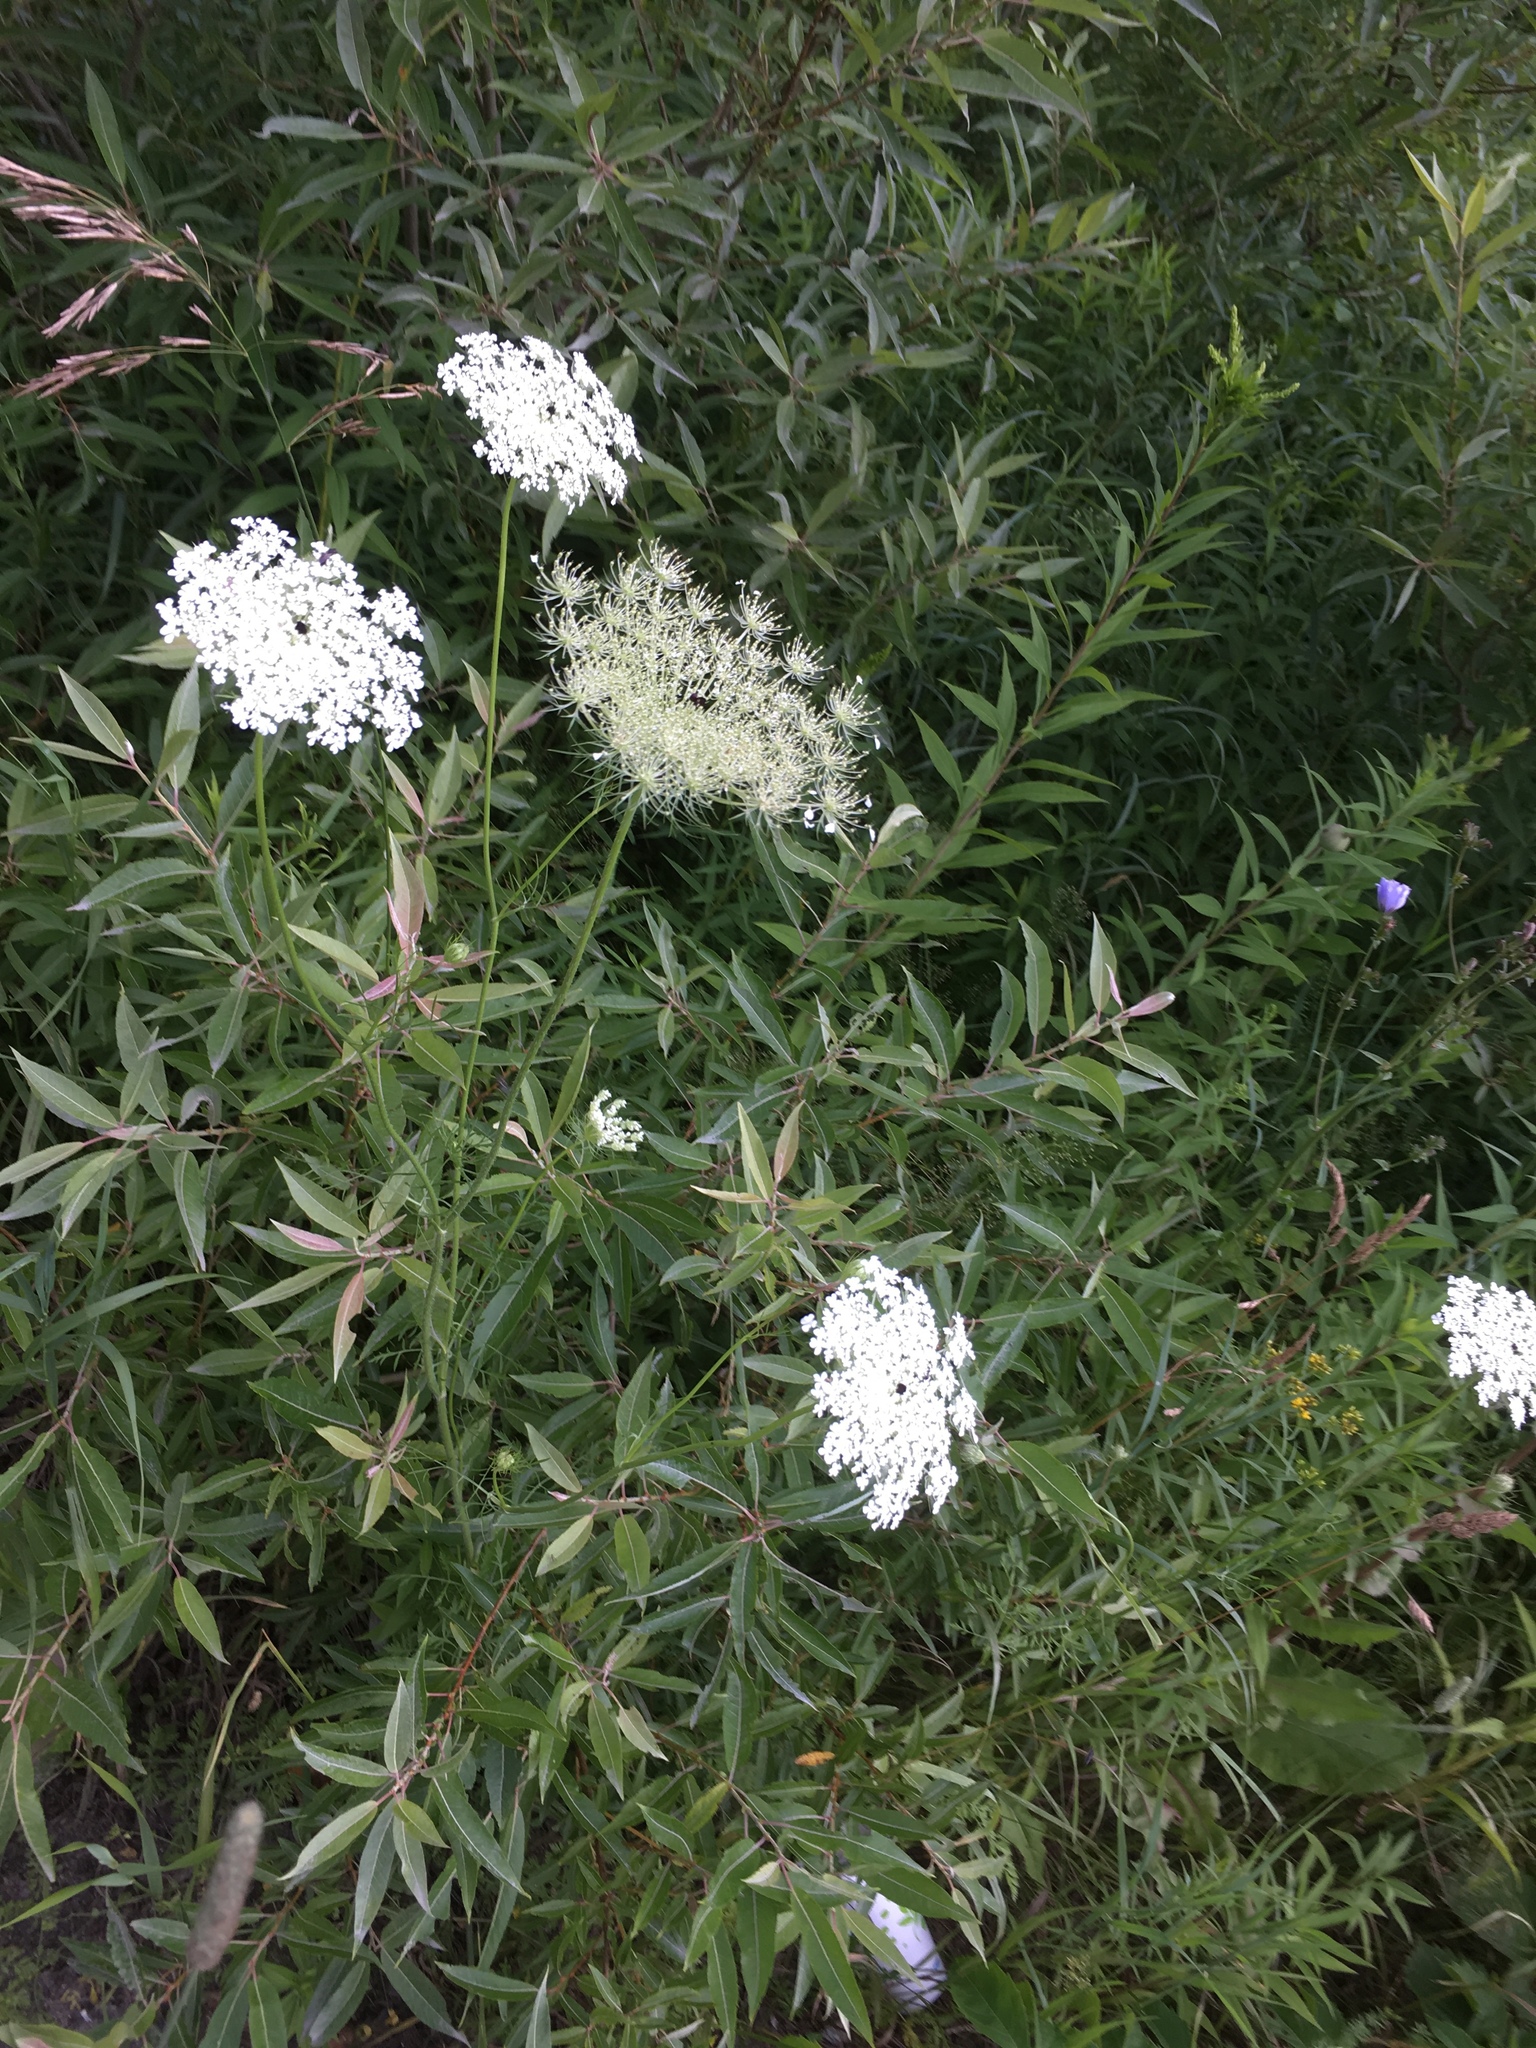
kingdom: Plantae
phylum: Tracheophyta
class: Magnoliopsida
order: Apiales
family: Apiaceae
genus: Daucus
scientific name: Daucus carota
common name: Wild carrot
